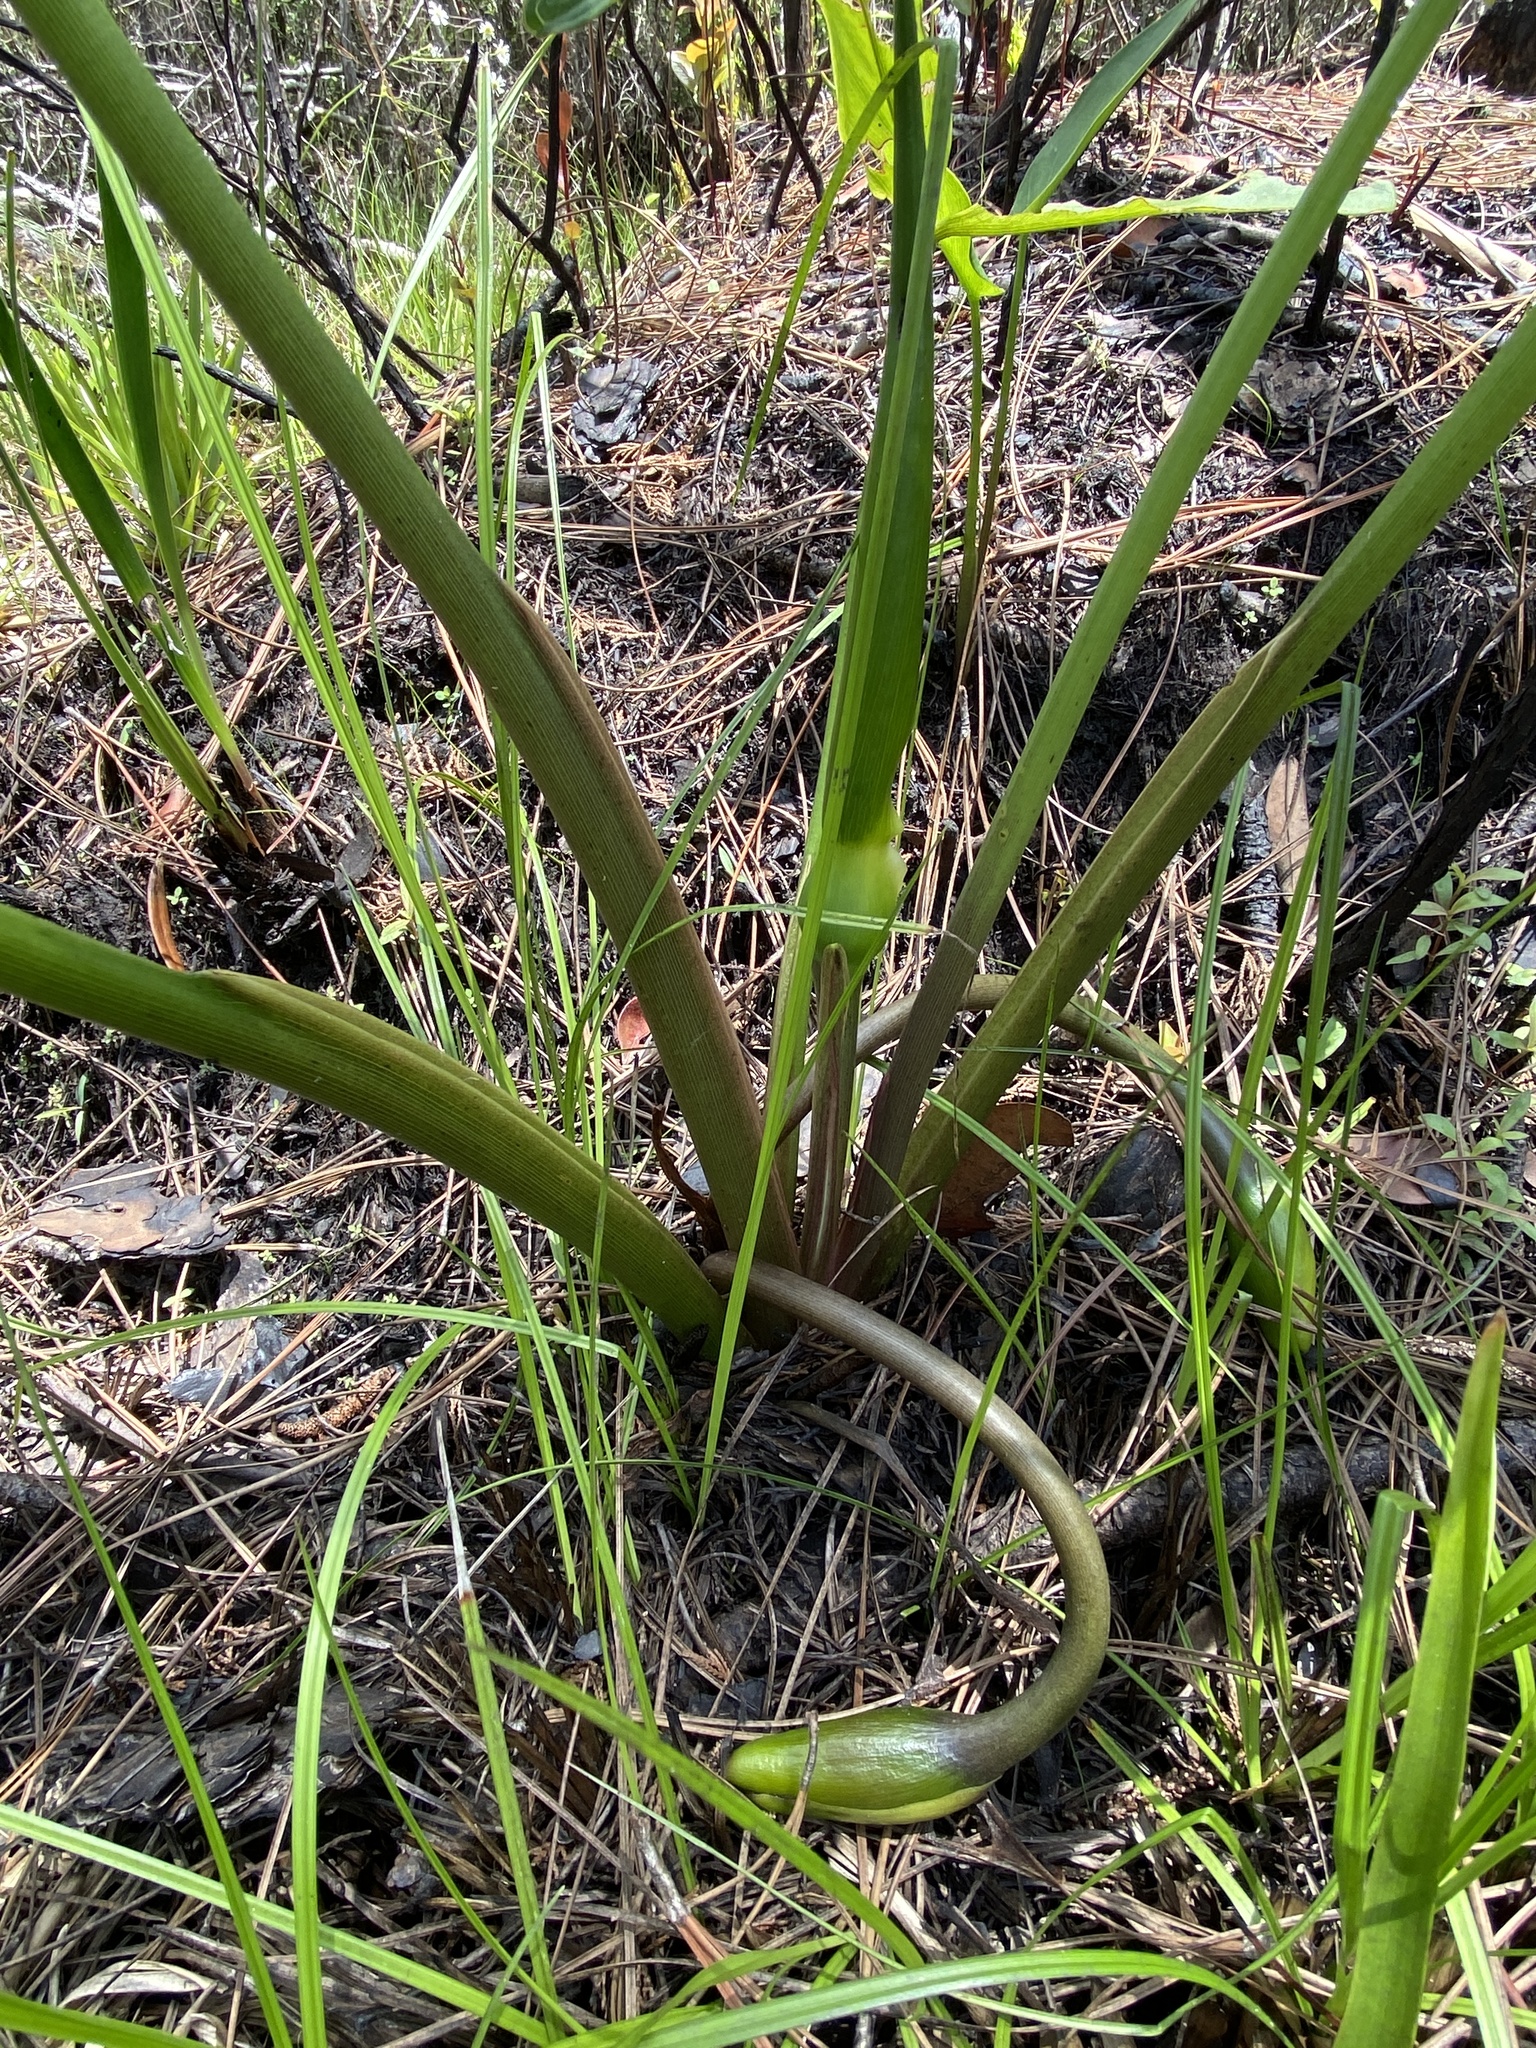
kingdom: Plantae
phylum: Tracheophyta
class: Liliopsida
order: Alismatales
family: Araceae
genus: Peltandra
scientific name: Peltandra virginica
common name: Arrow arum
